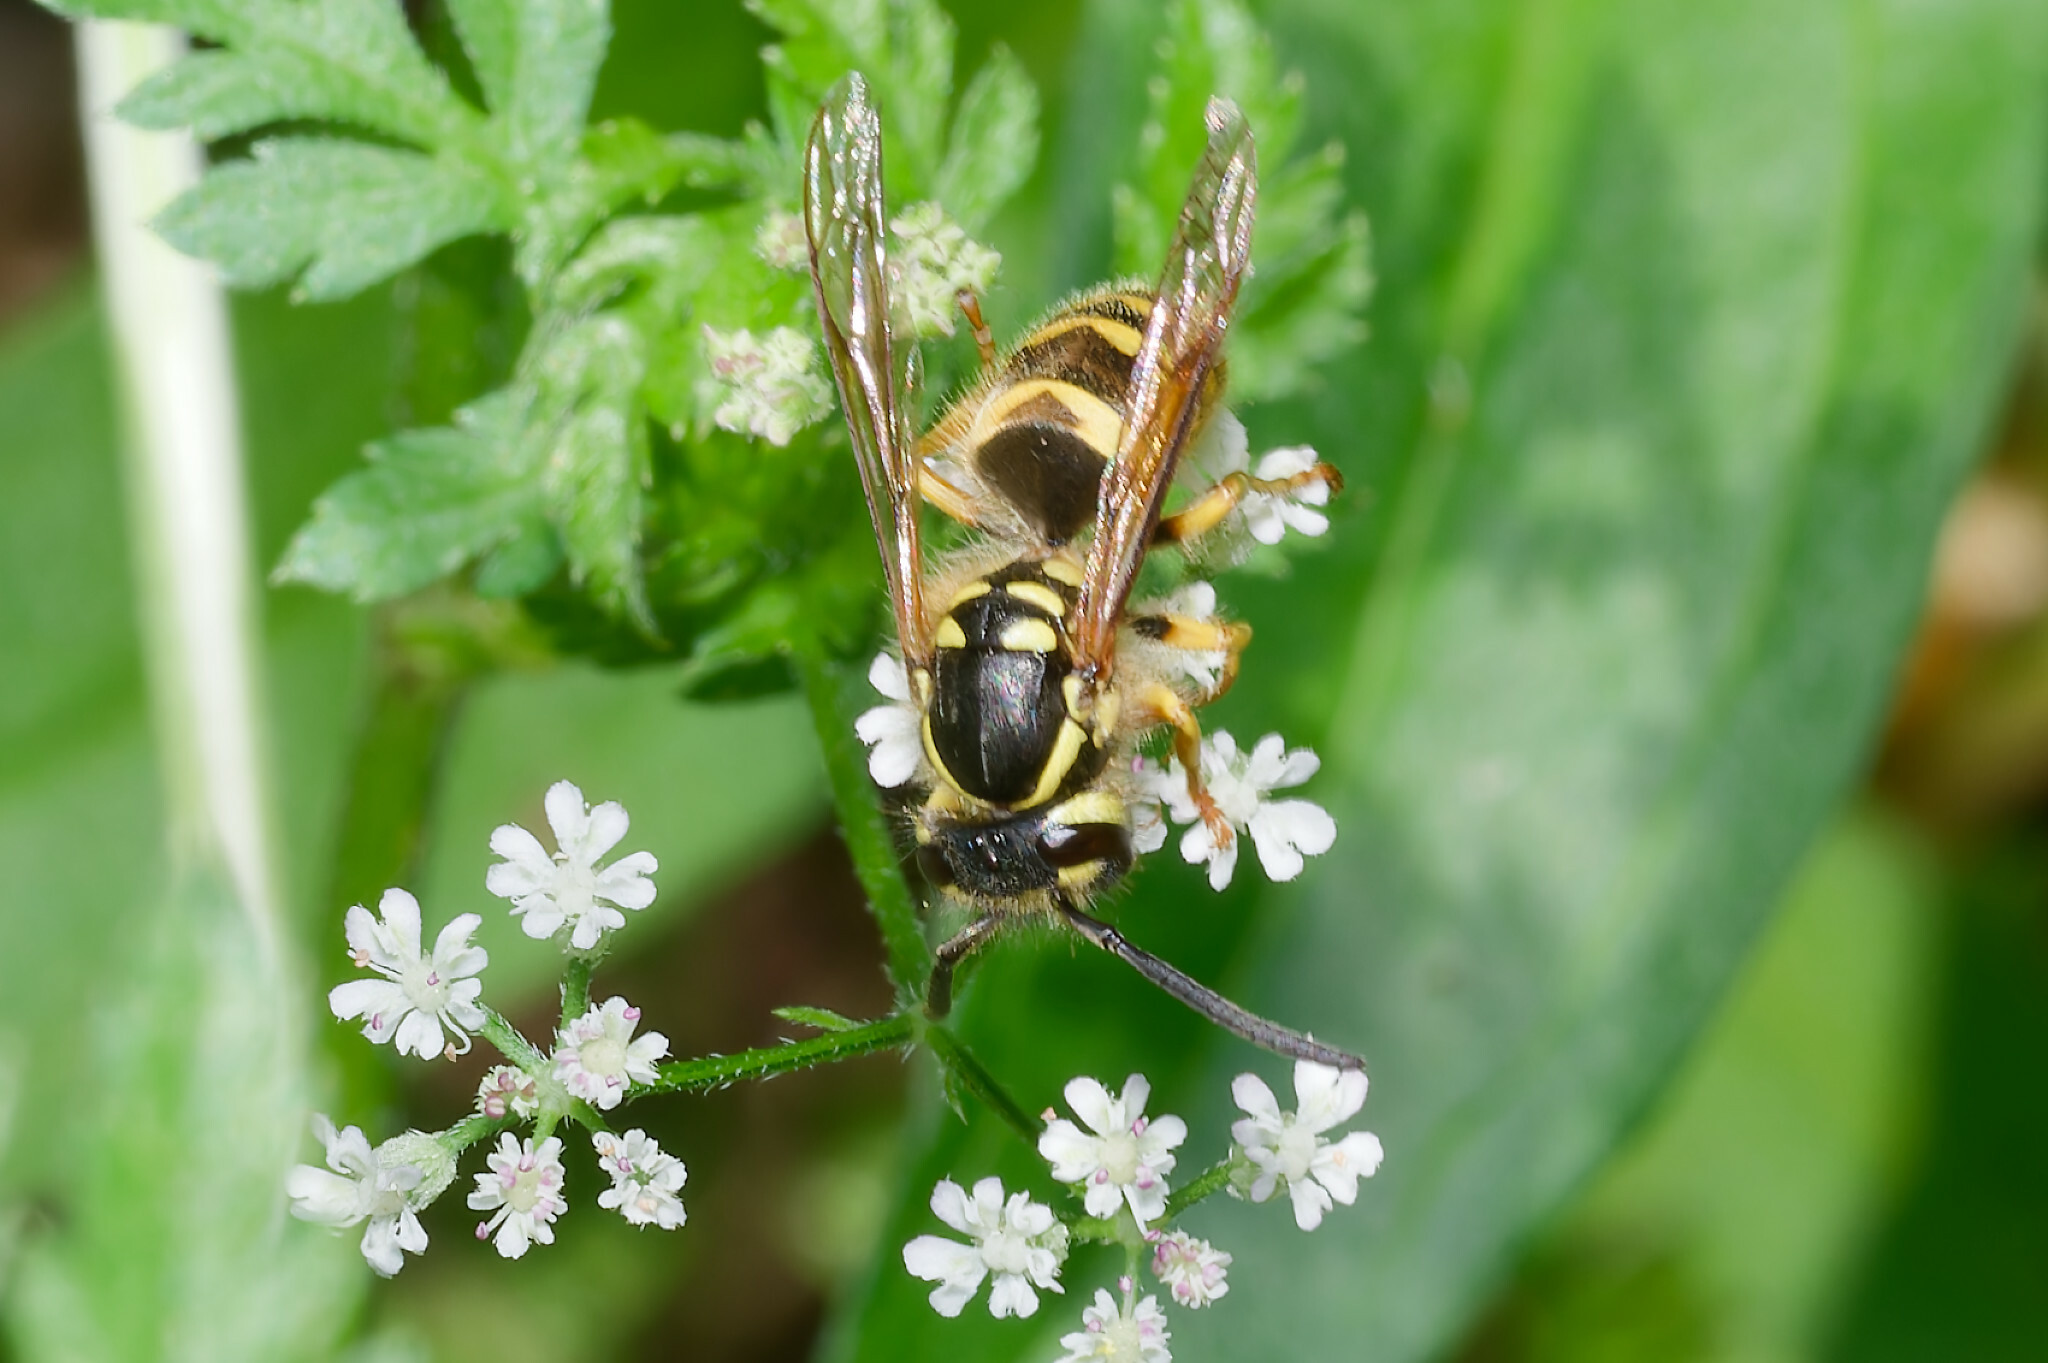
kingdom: Animalia
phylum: Arthropoda
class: Insecta
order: Hymenoptera
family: Vespidae
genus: Vespula
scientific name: Vespula flavopilosa
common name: Downy yellowjacket
